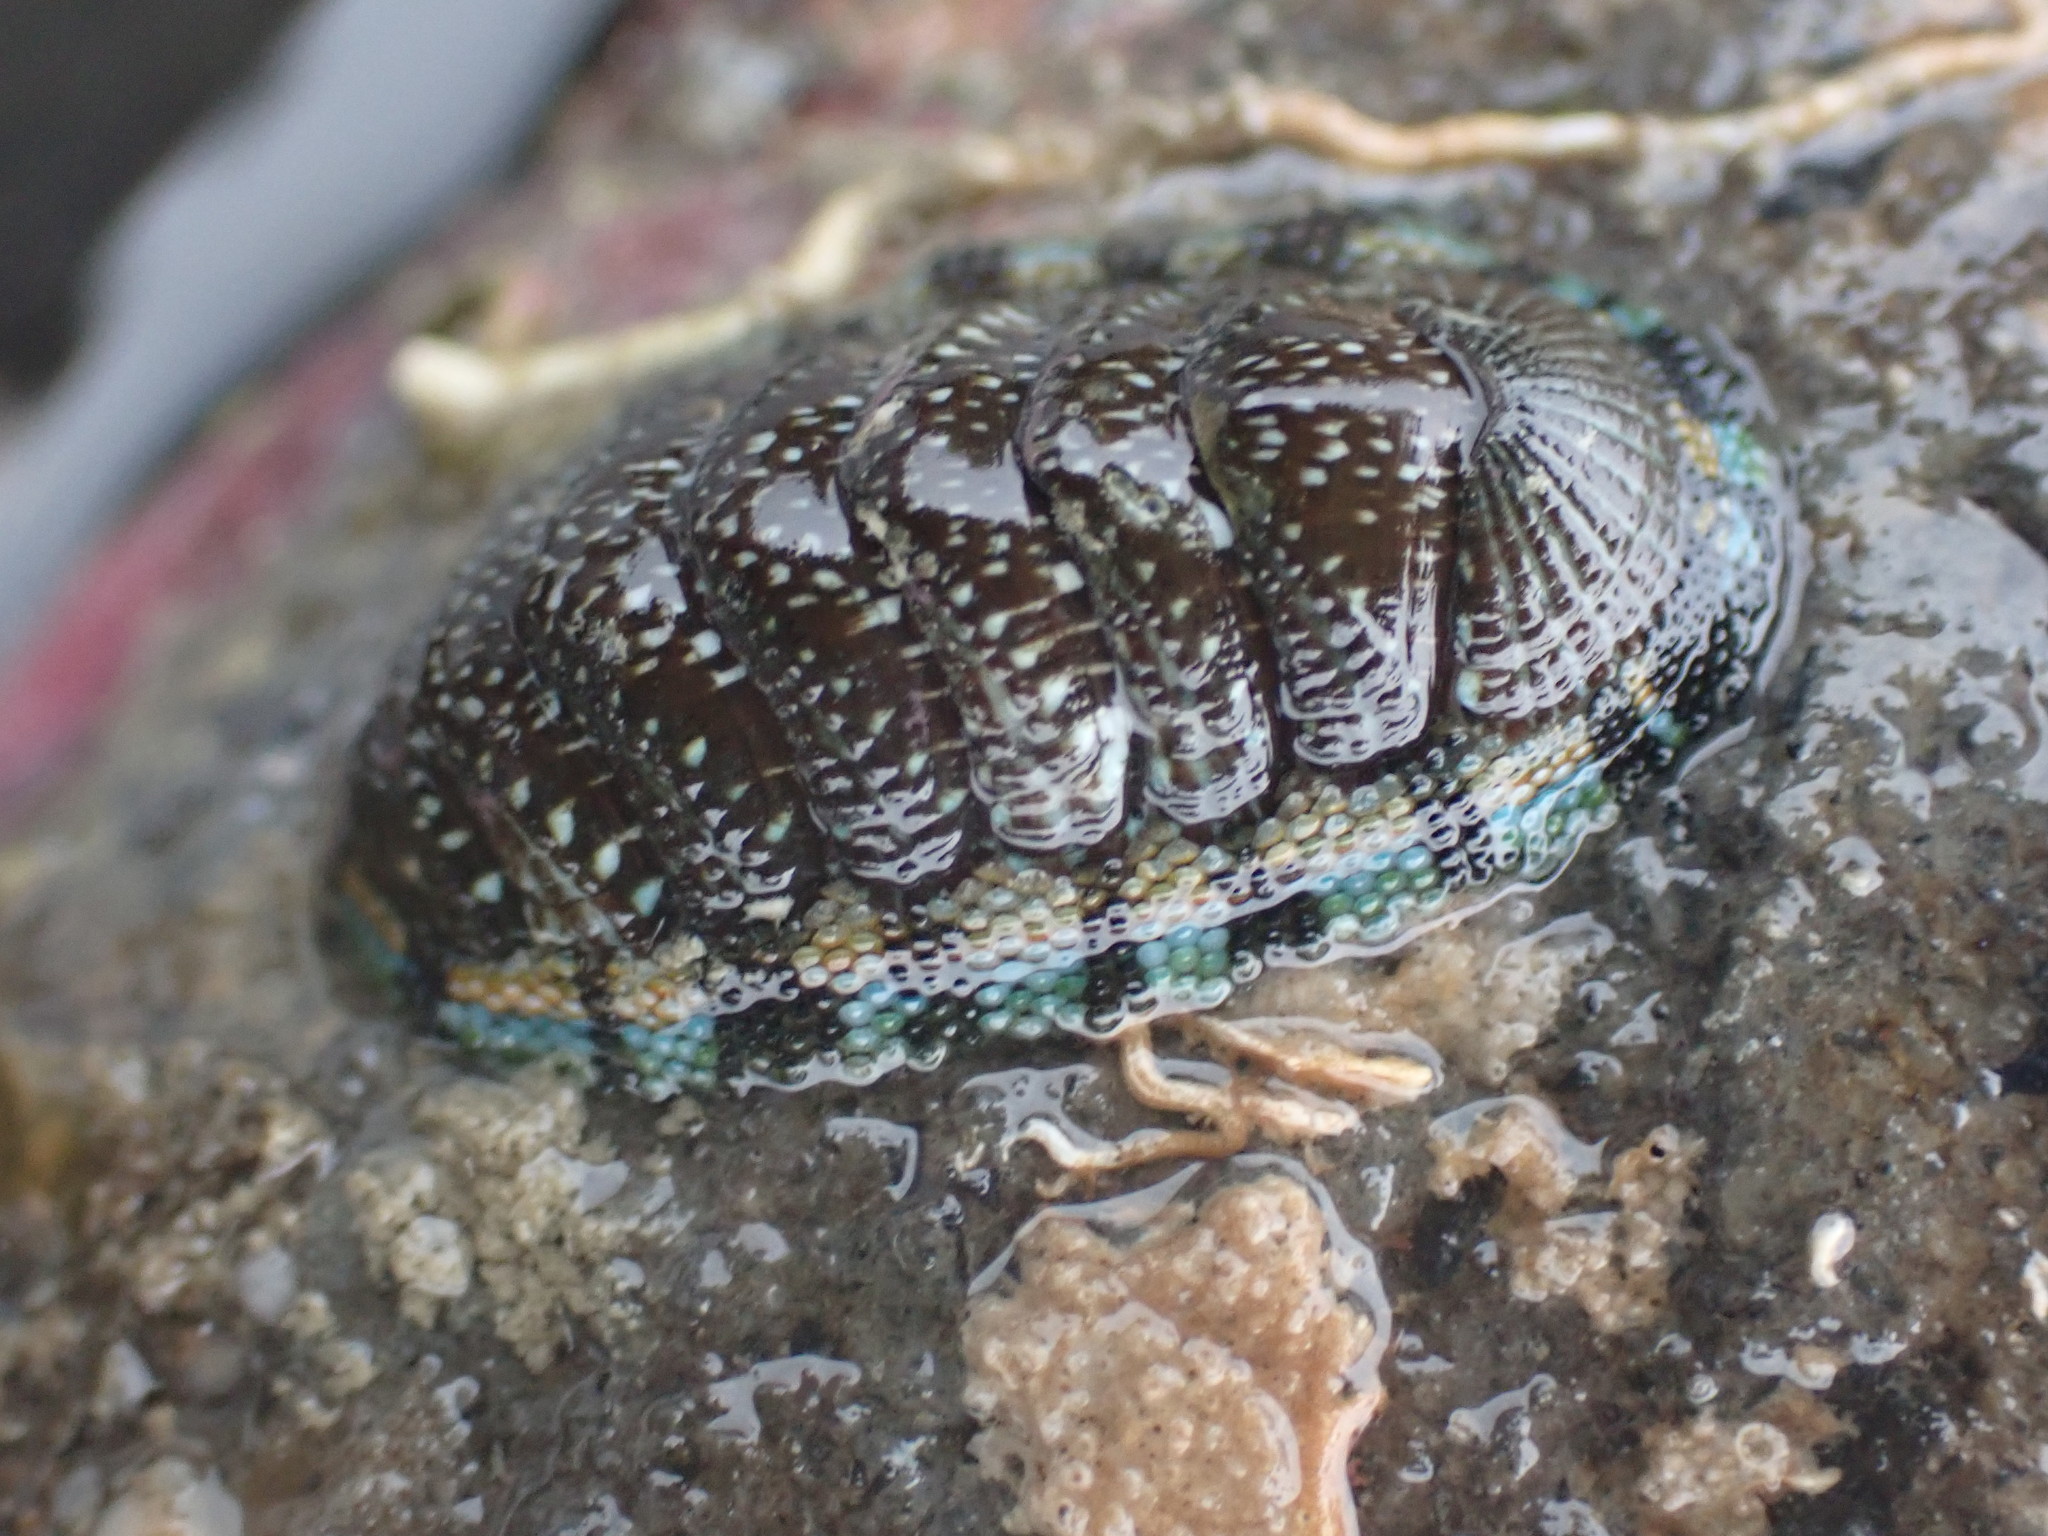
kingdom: Animalia
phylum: Mollusca
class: Polyplacophora
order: Chitonida
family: Chitonidae
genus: Sypharochiton
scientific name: Sypharochiton sinclairi
